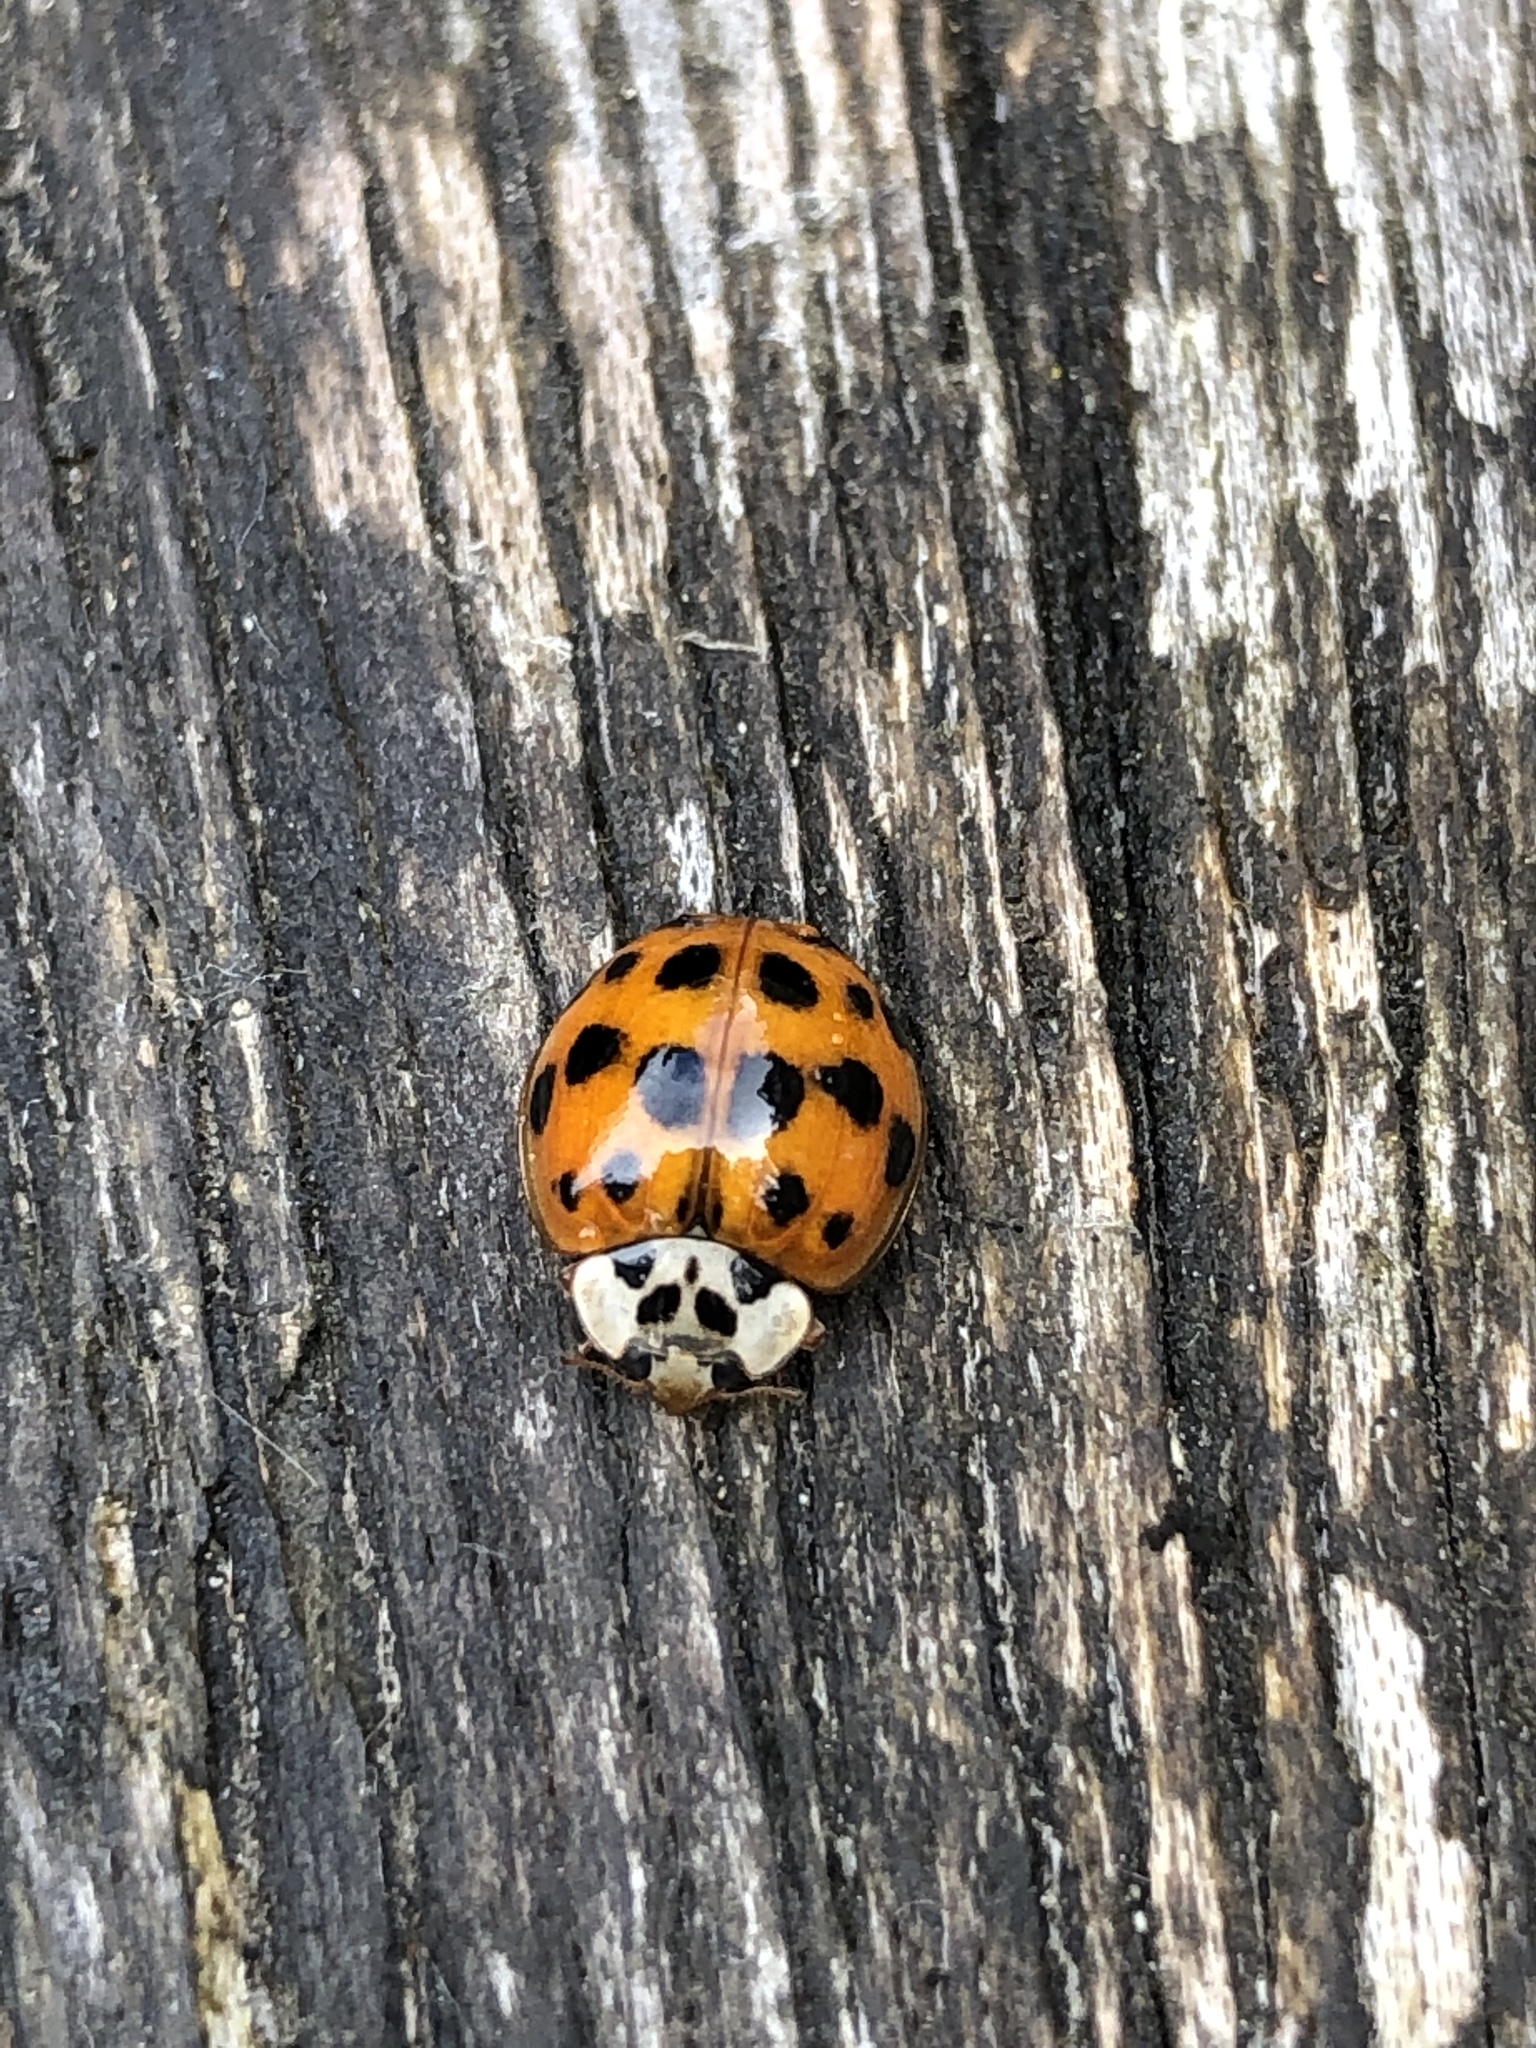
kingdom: Animalia
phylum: Arthropoda
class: Insecta
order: Coleoptera
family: Coccinellidae
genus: Harmonia
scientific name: Harmonia axyridis
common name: Harlequin ladybird
